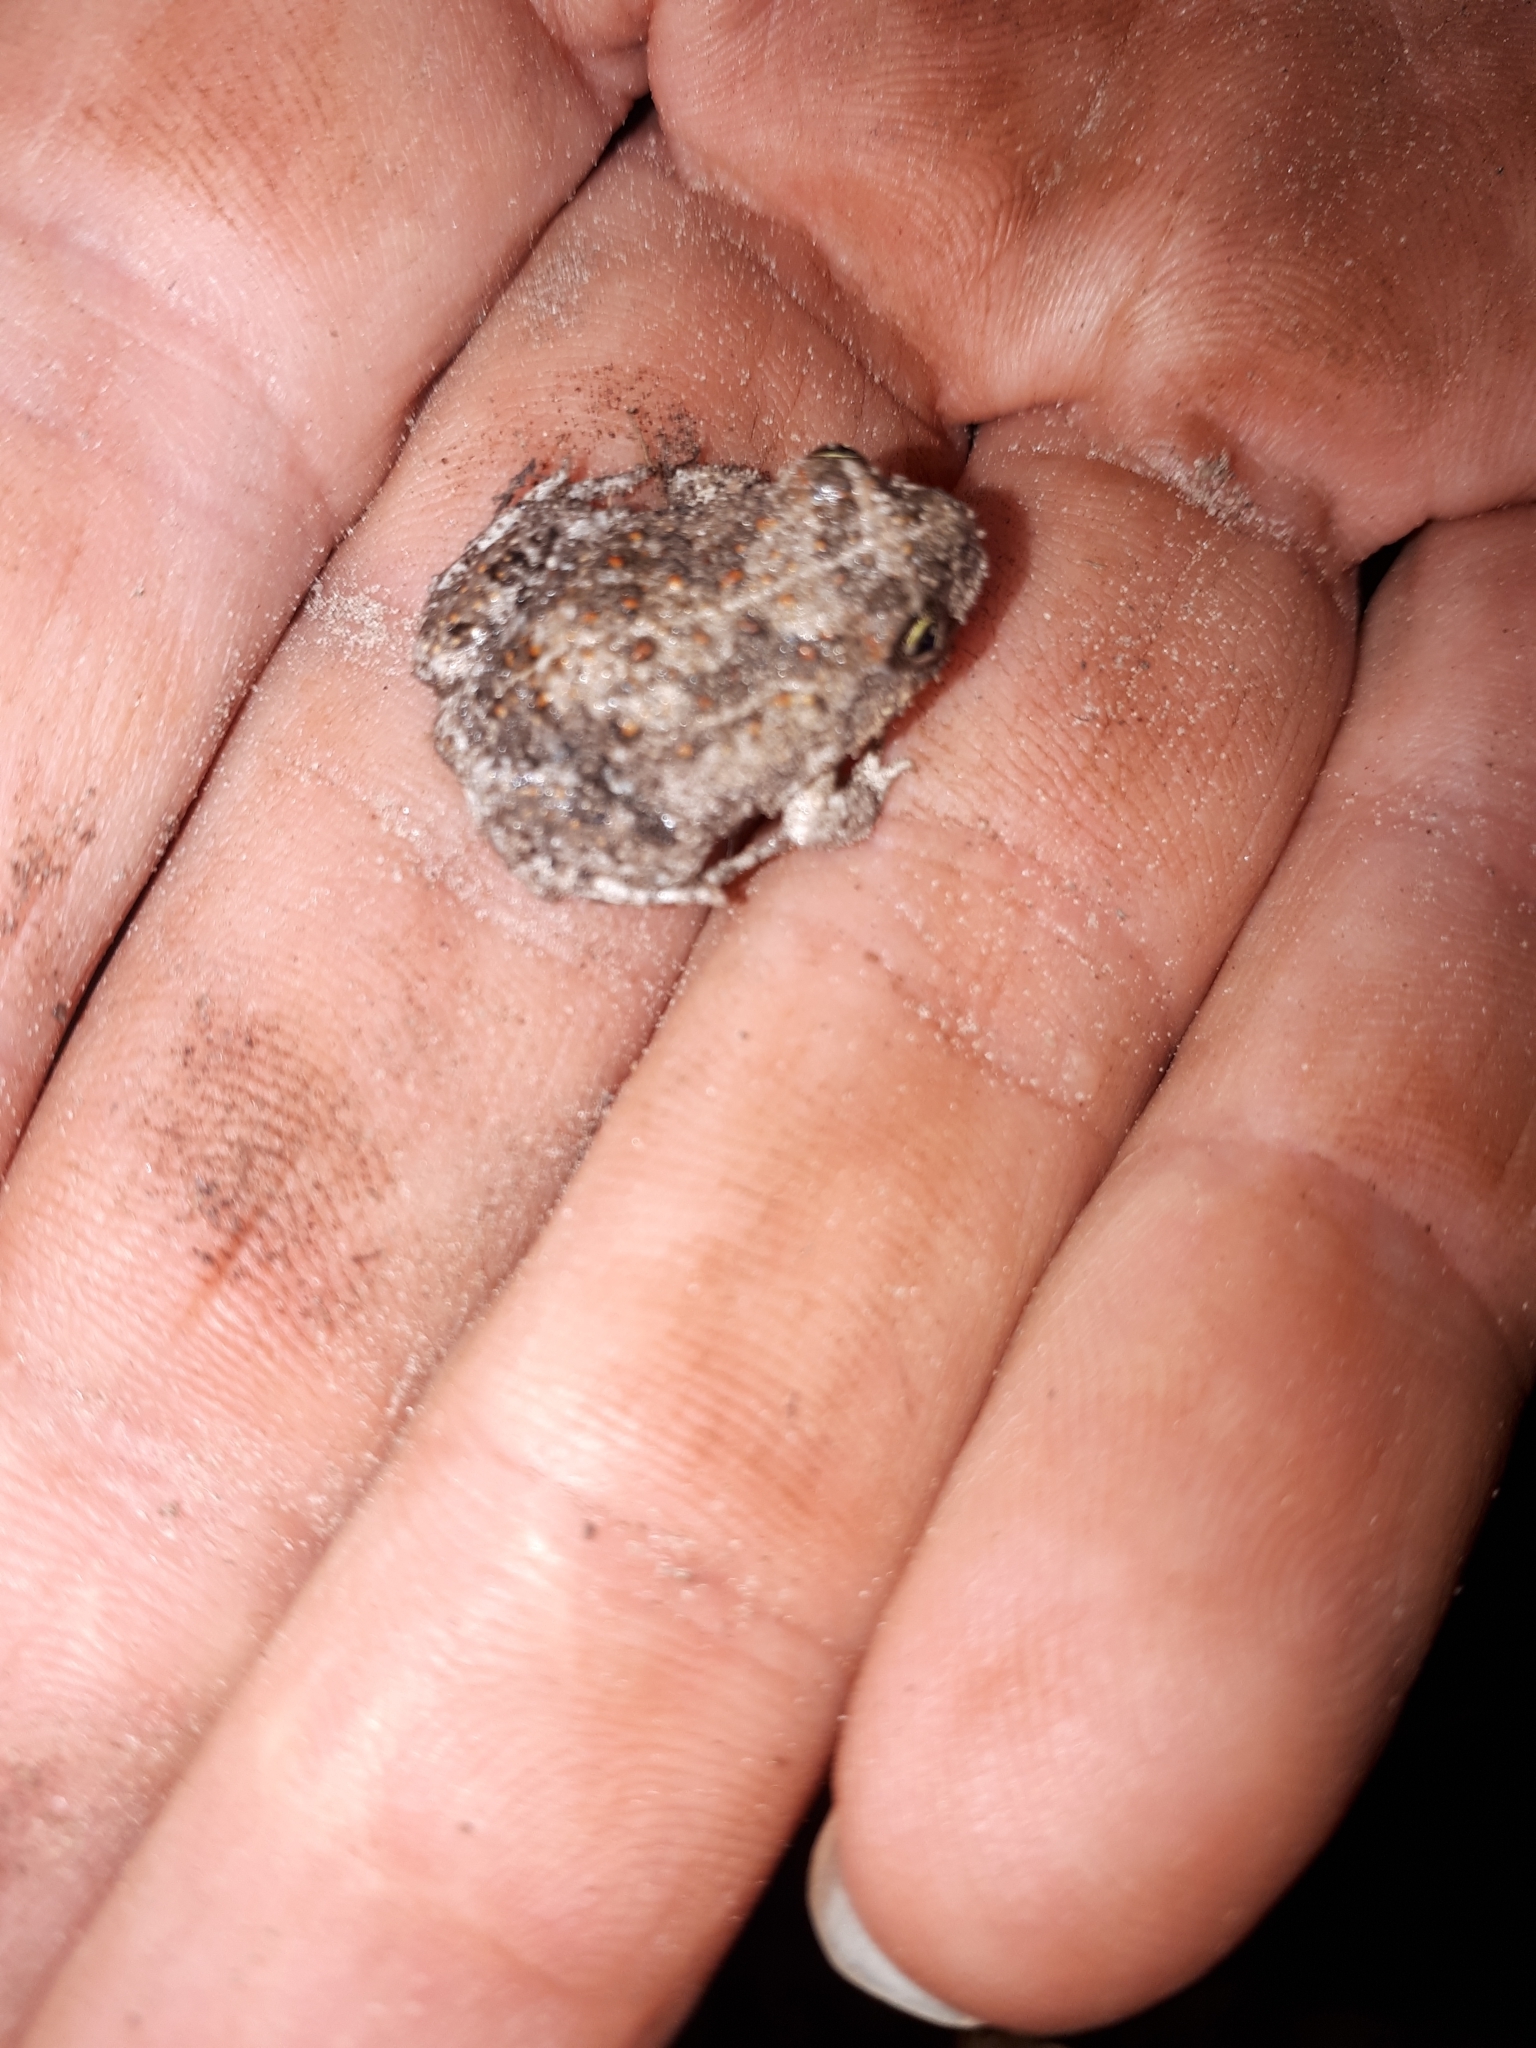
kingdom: Animalia
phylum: Chordata
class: Amphibia
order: Anura
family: Pyxicephalidae
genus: Tomopterna
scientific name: Tomopterna delalandii
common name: Delalande's burrowing bullfrog
